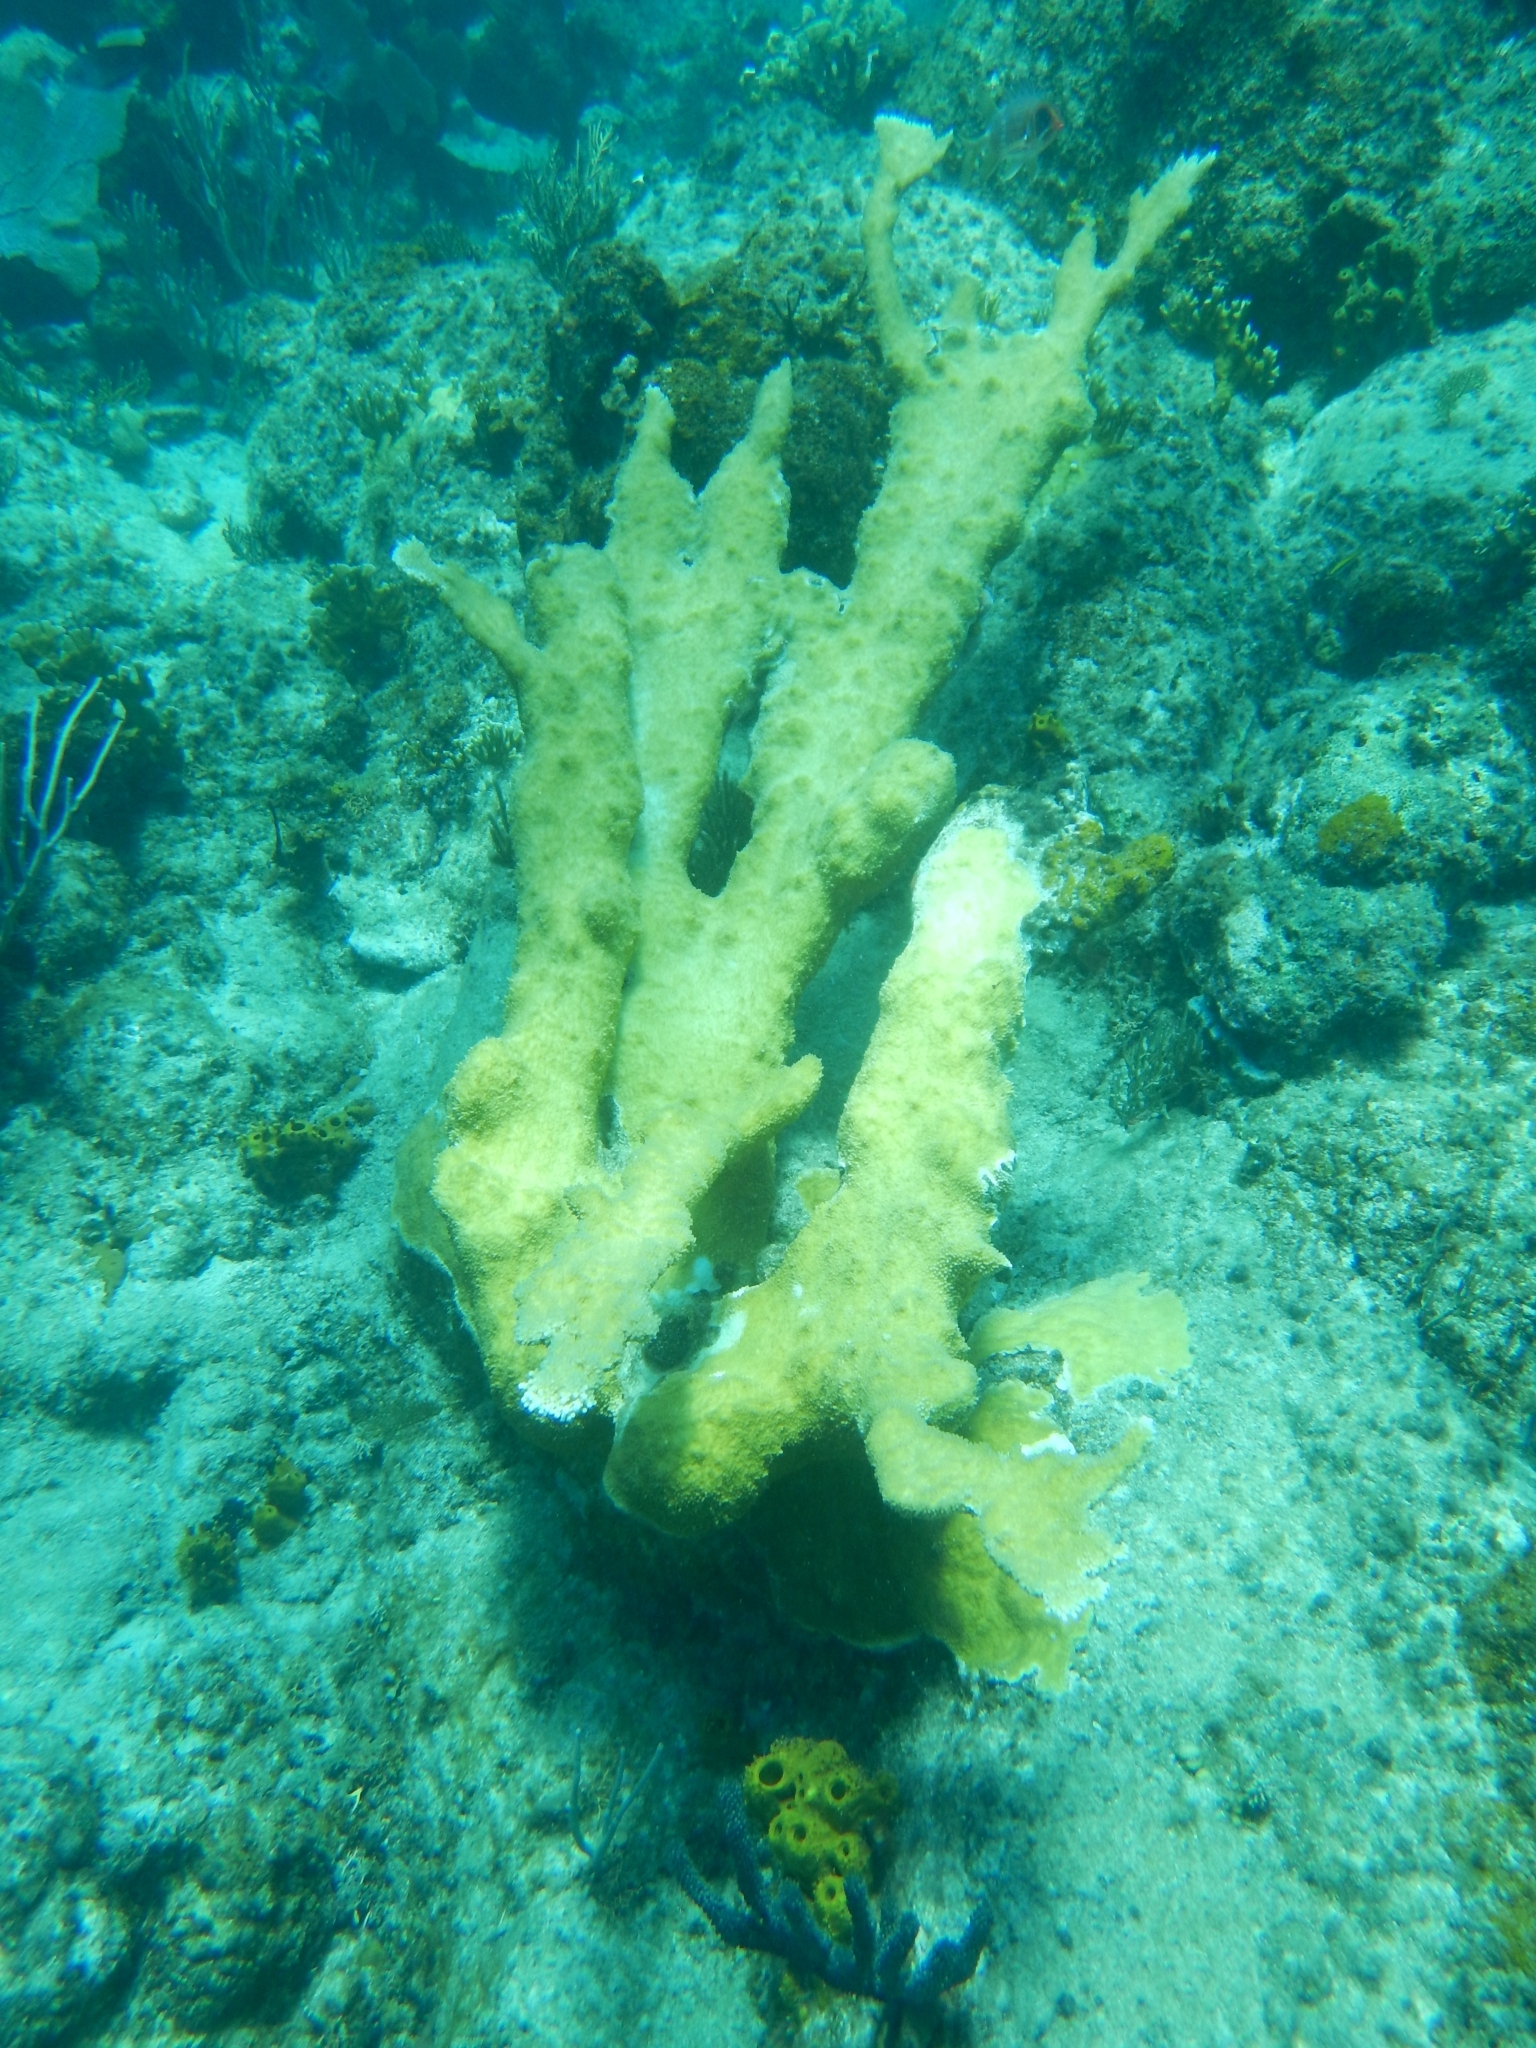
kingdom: Animalia
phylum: Cnidaria
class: Anthozoa
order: Scleractinia
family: Acroporidae
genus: Acropora
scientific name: Acropora palmata
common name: Elkhorn coral
